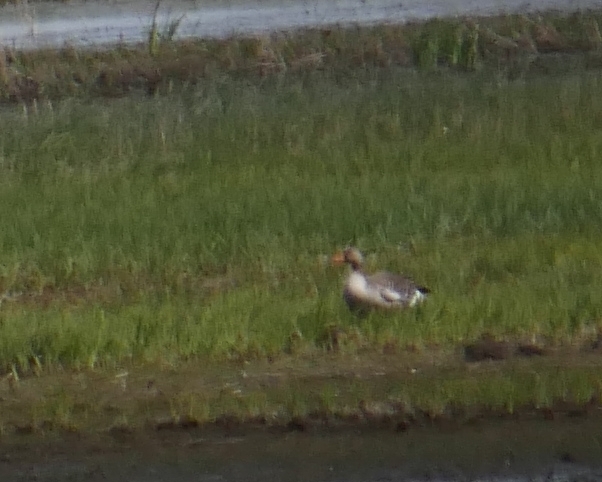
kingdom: Animalia
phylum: Chordata
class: Aves
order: Anseriformes
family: Anatidae
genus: Anser
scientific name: Anser anser
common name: Greylag goose
